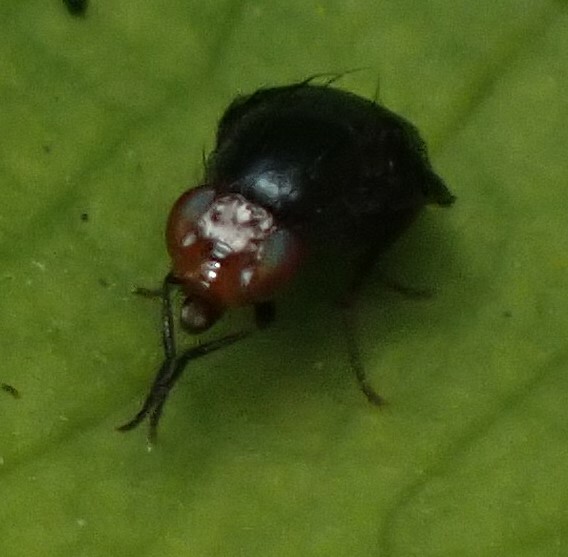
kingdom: Animalia
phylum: Arthropoda
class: Insecta
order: Diptera
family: Lauxaniidae
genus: Depressa
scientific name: Depressa atrata
